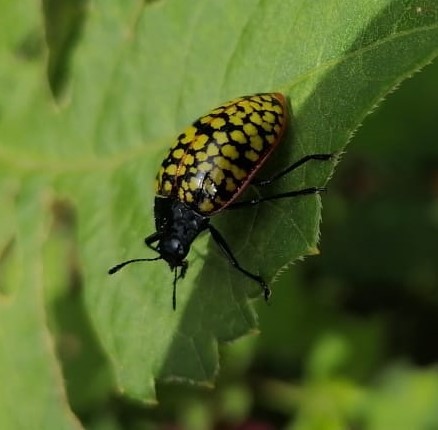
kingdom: Animalia
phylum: Arthropoda
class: Insecta
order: Coleoptera
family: Erotylidae
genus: Erotylina
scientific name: Erotylina
